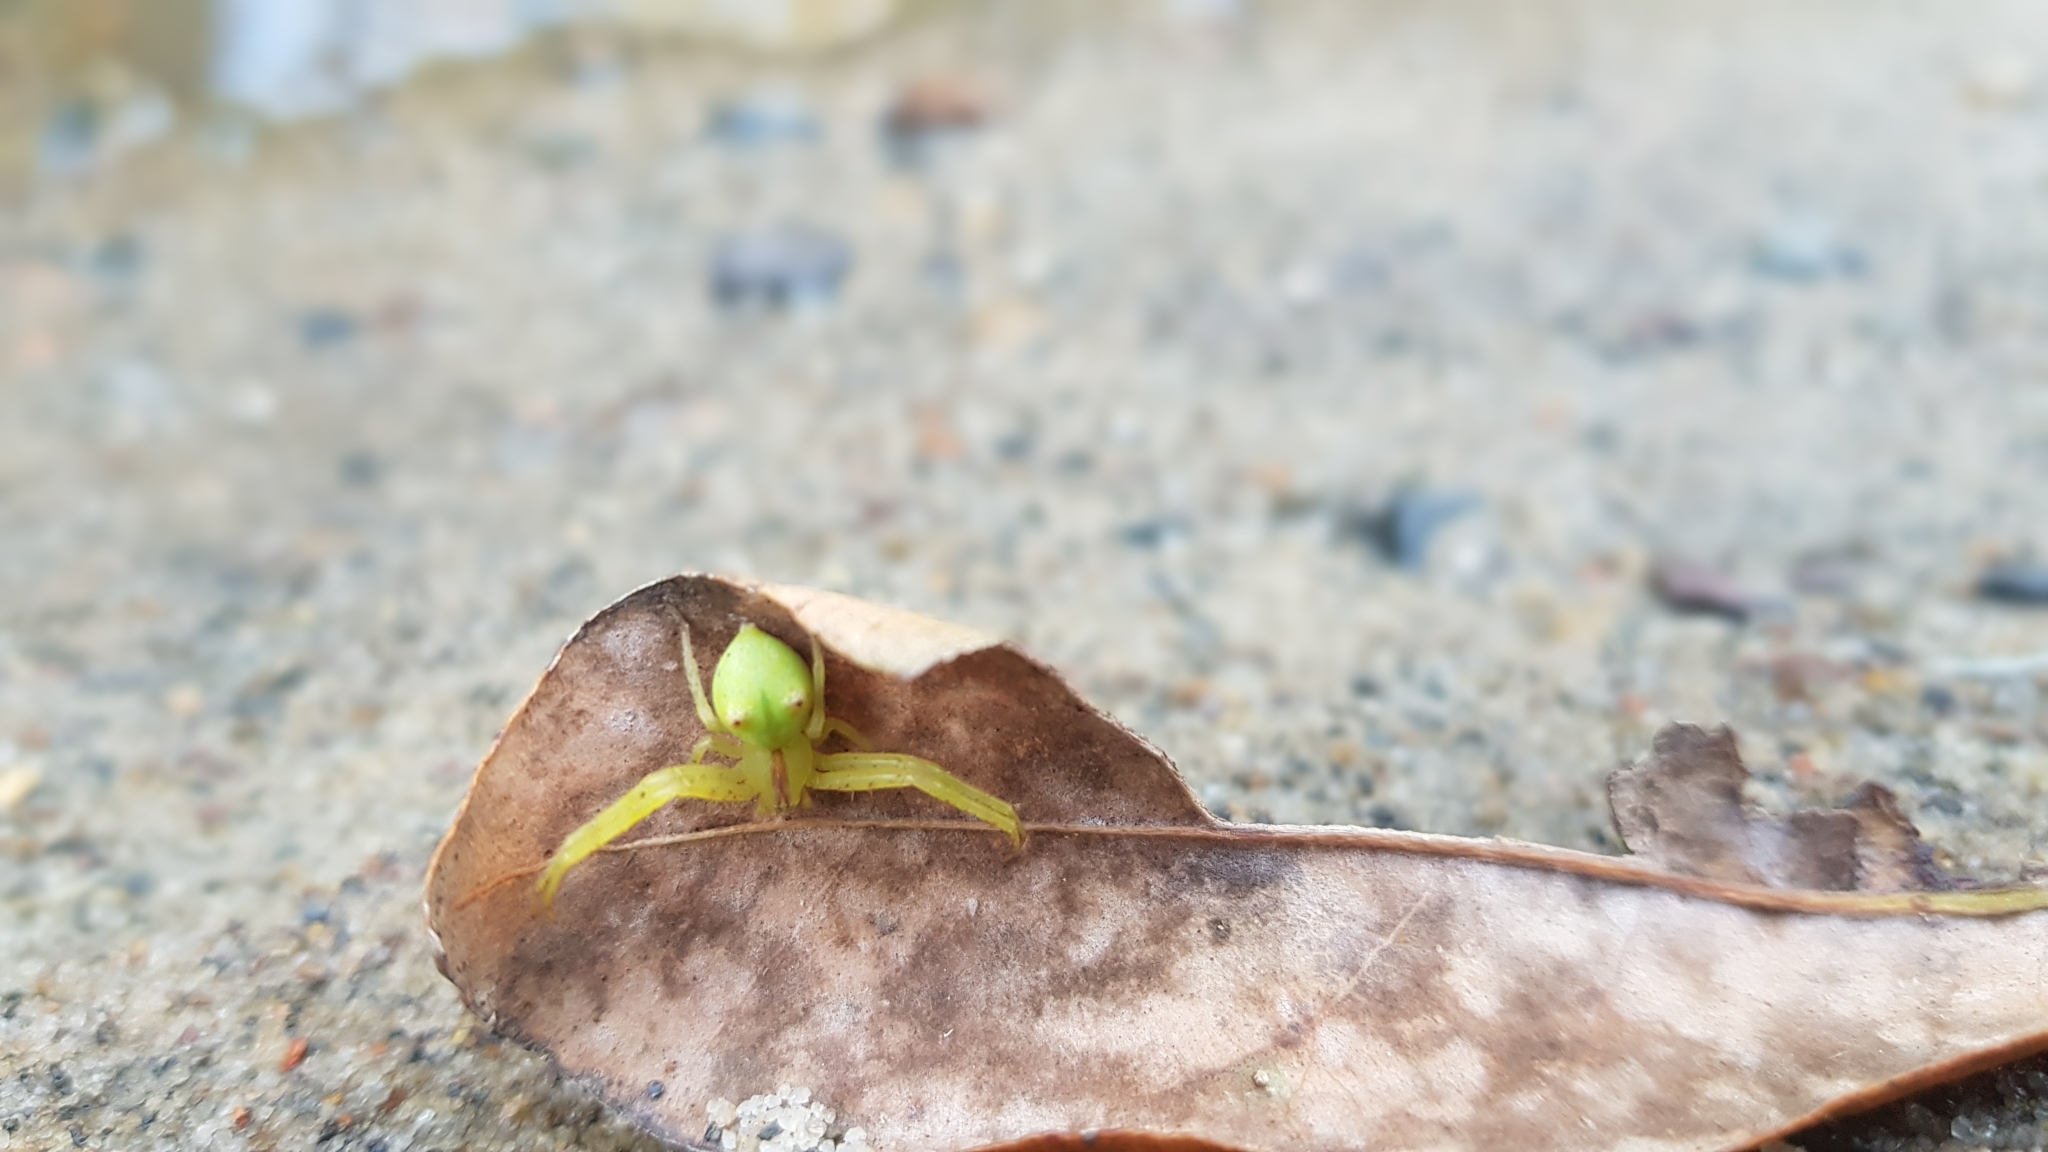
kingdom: Animalia
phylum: Arthropoda
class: Arachnida
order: Araneae
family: Thomisidae
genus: Sidymella
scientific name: Sidymella rubrosignata
